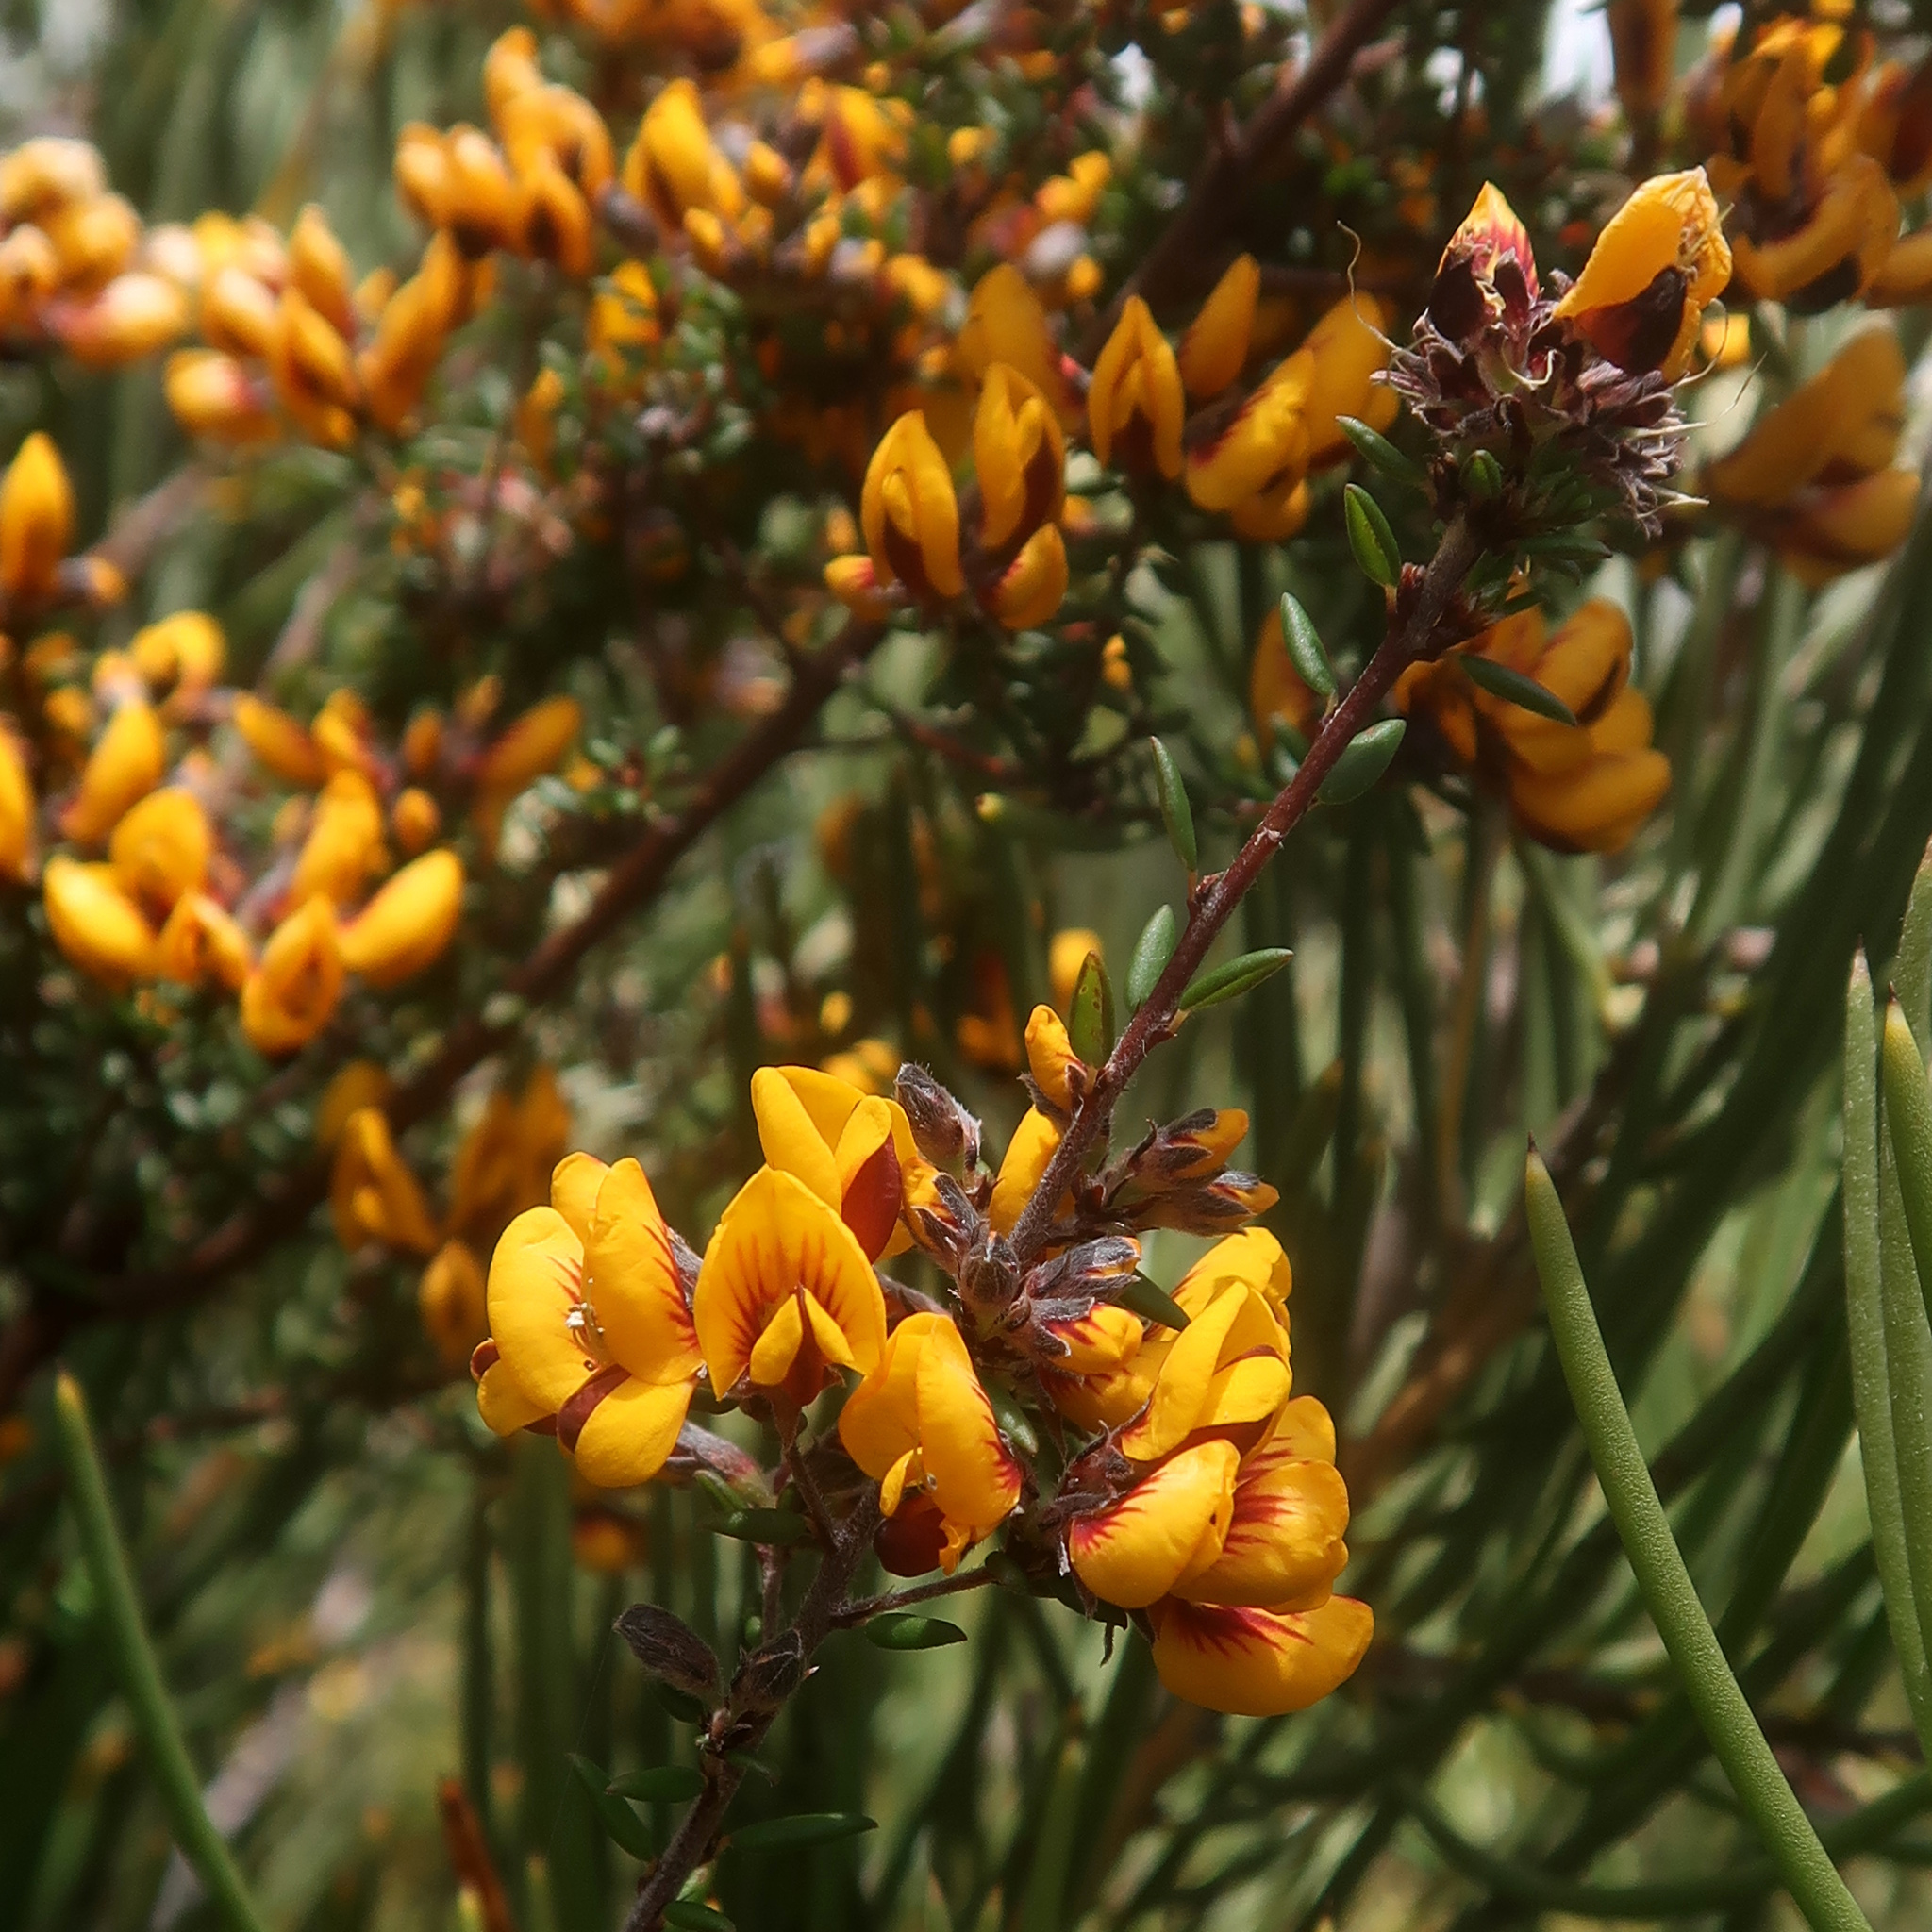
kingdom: Plantae
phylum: Tracheophyta
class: Magnoliopsida
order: Fabales
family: Fabaceae
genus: Pultenaea
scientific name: Pultenaea gunnii
